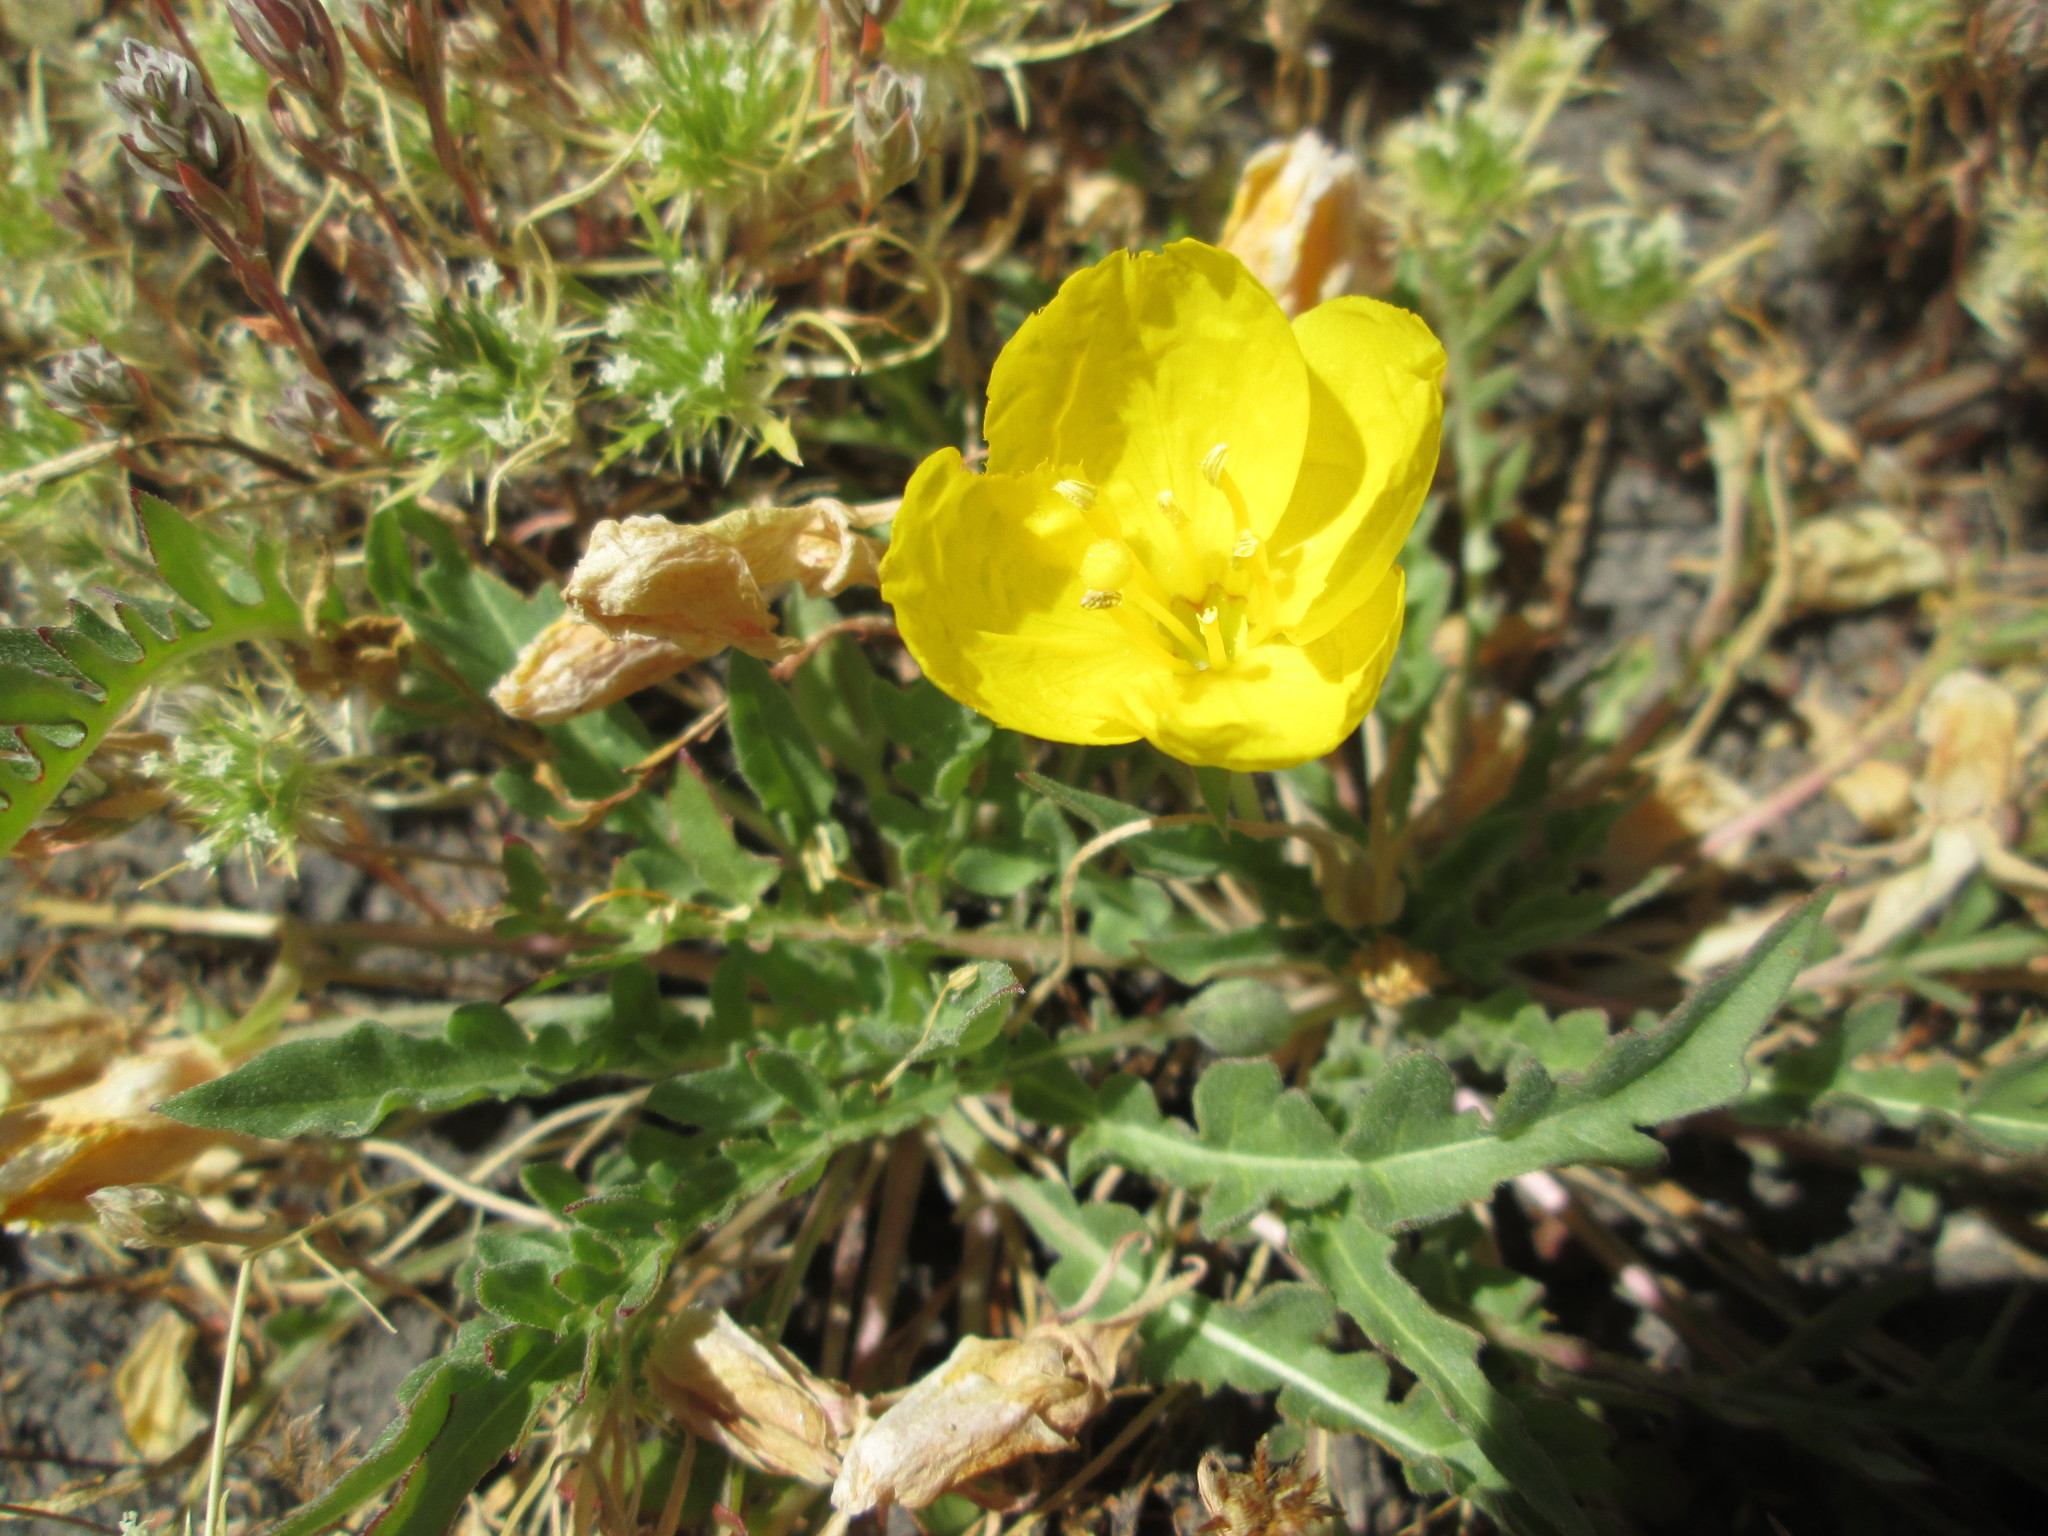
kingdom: Plantae
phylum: Tracheophyta
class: Magnoliopsida
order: Myrtales
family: Onagraceae
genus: Oenothera
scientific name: Oenothera flava
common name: Long-tubed evening-primrose
